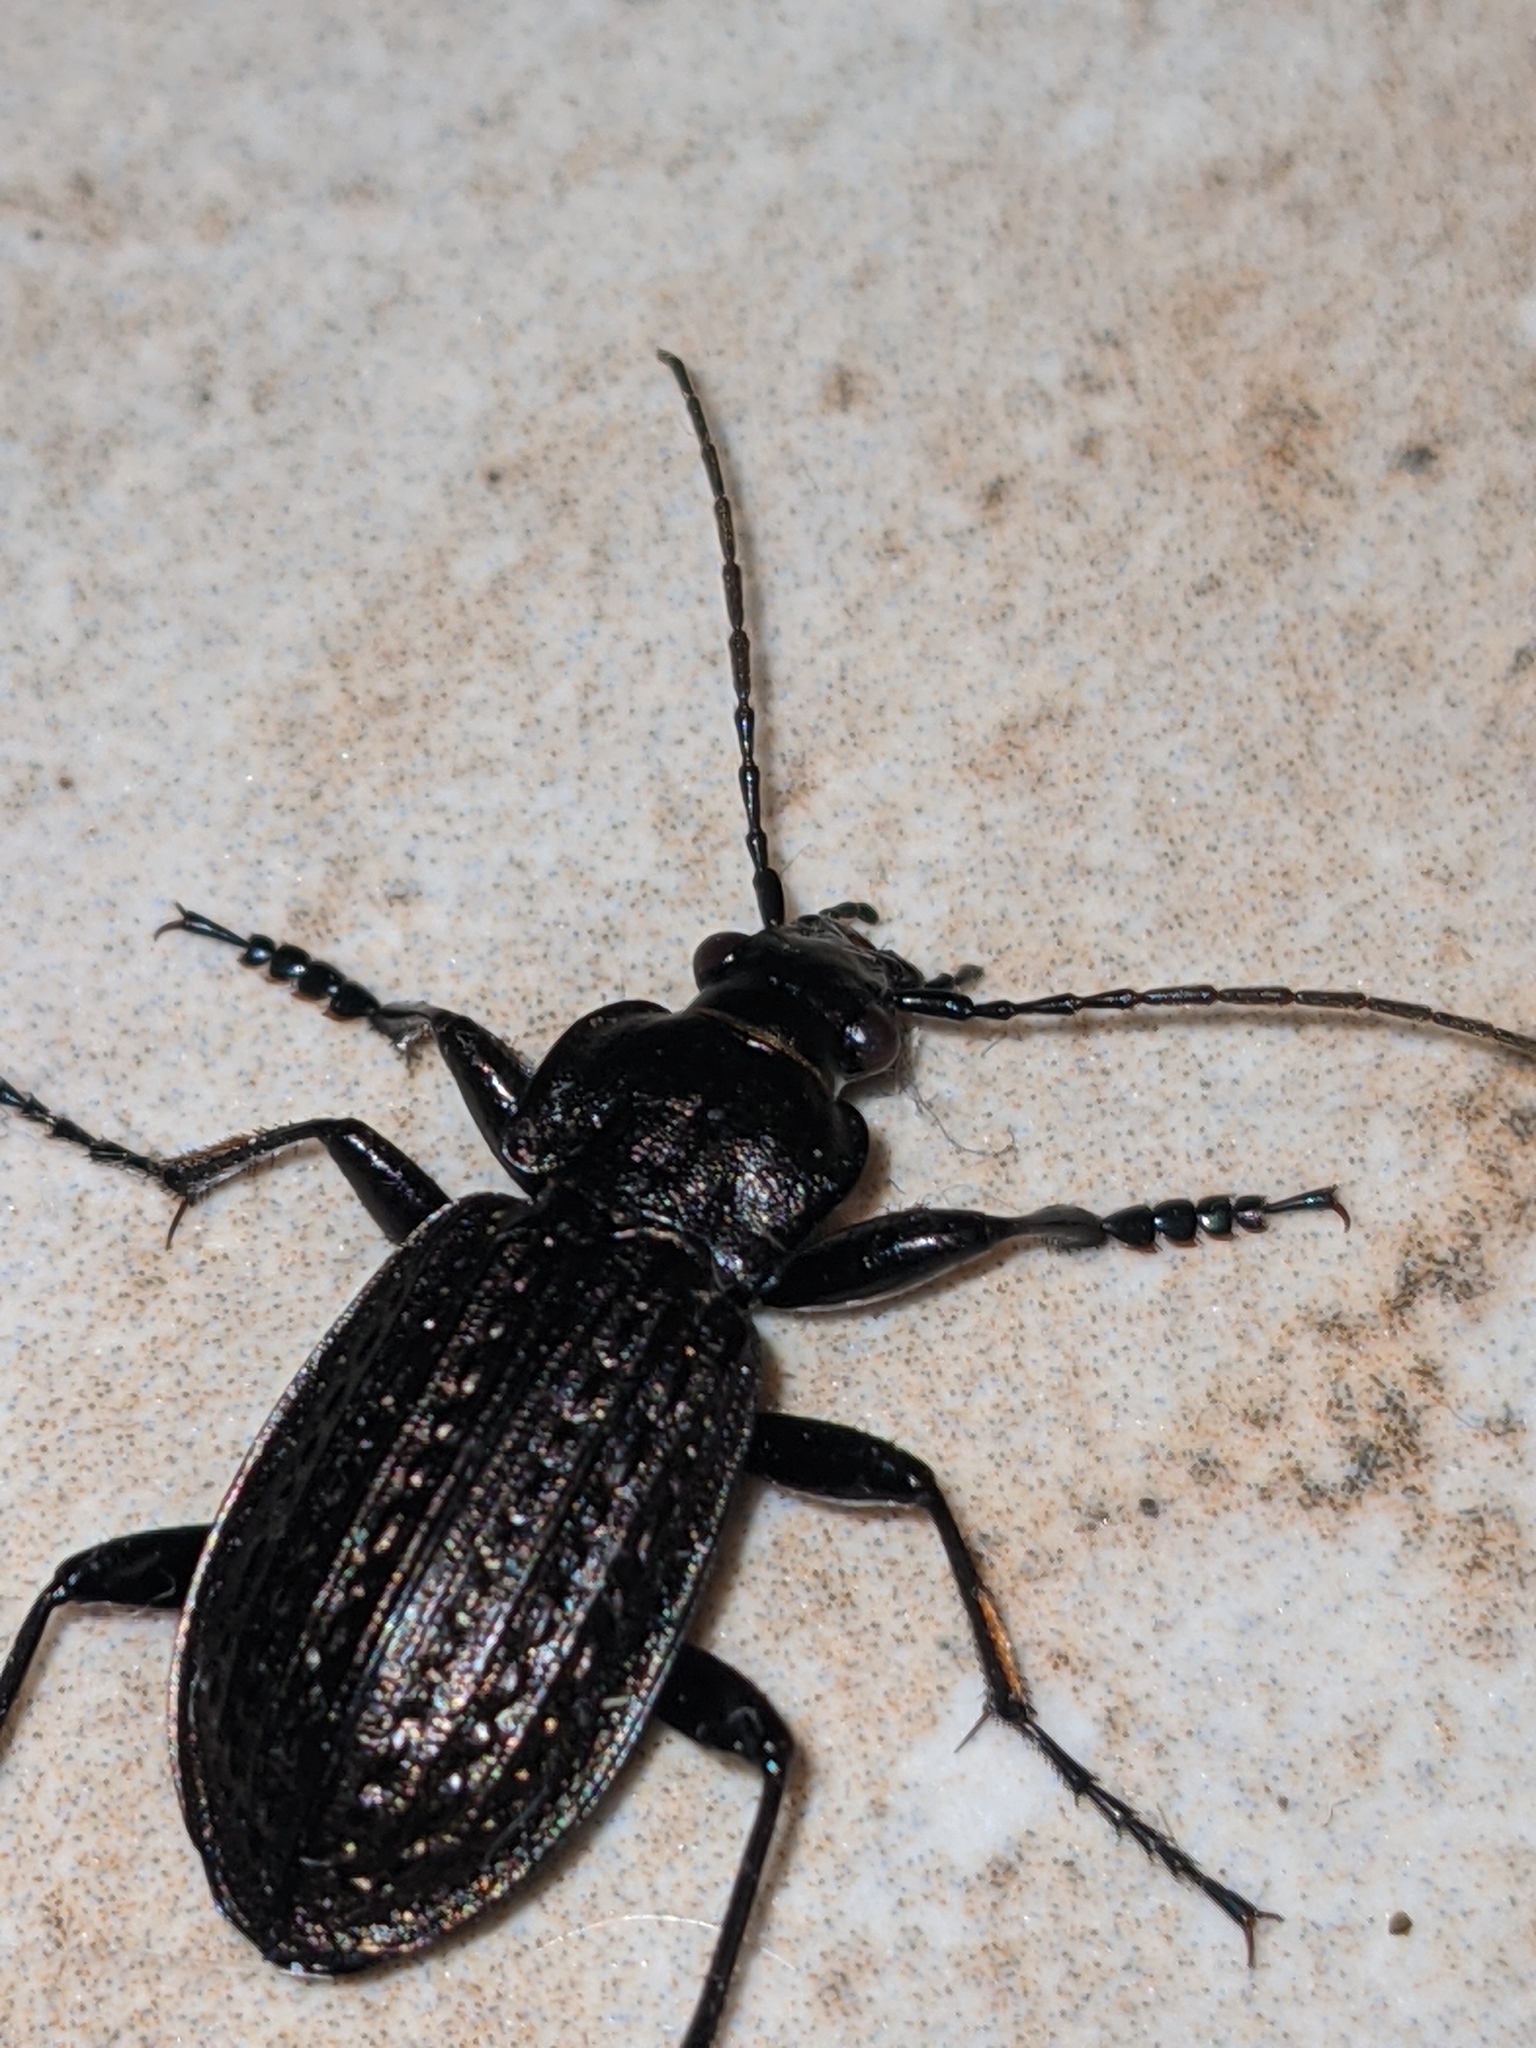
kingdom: Animalia
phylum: Arthropoda
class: Insecta
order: Coleoptera
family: Carabidae
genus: Carabus
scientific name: Carabus granulatus
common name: Granulate ground beetle
